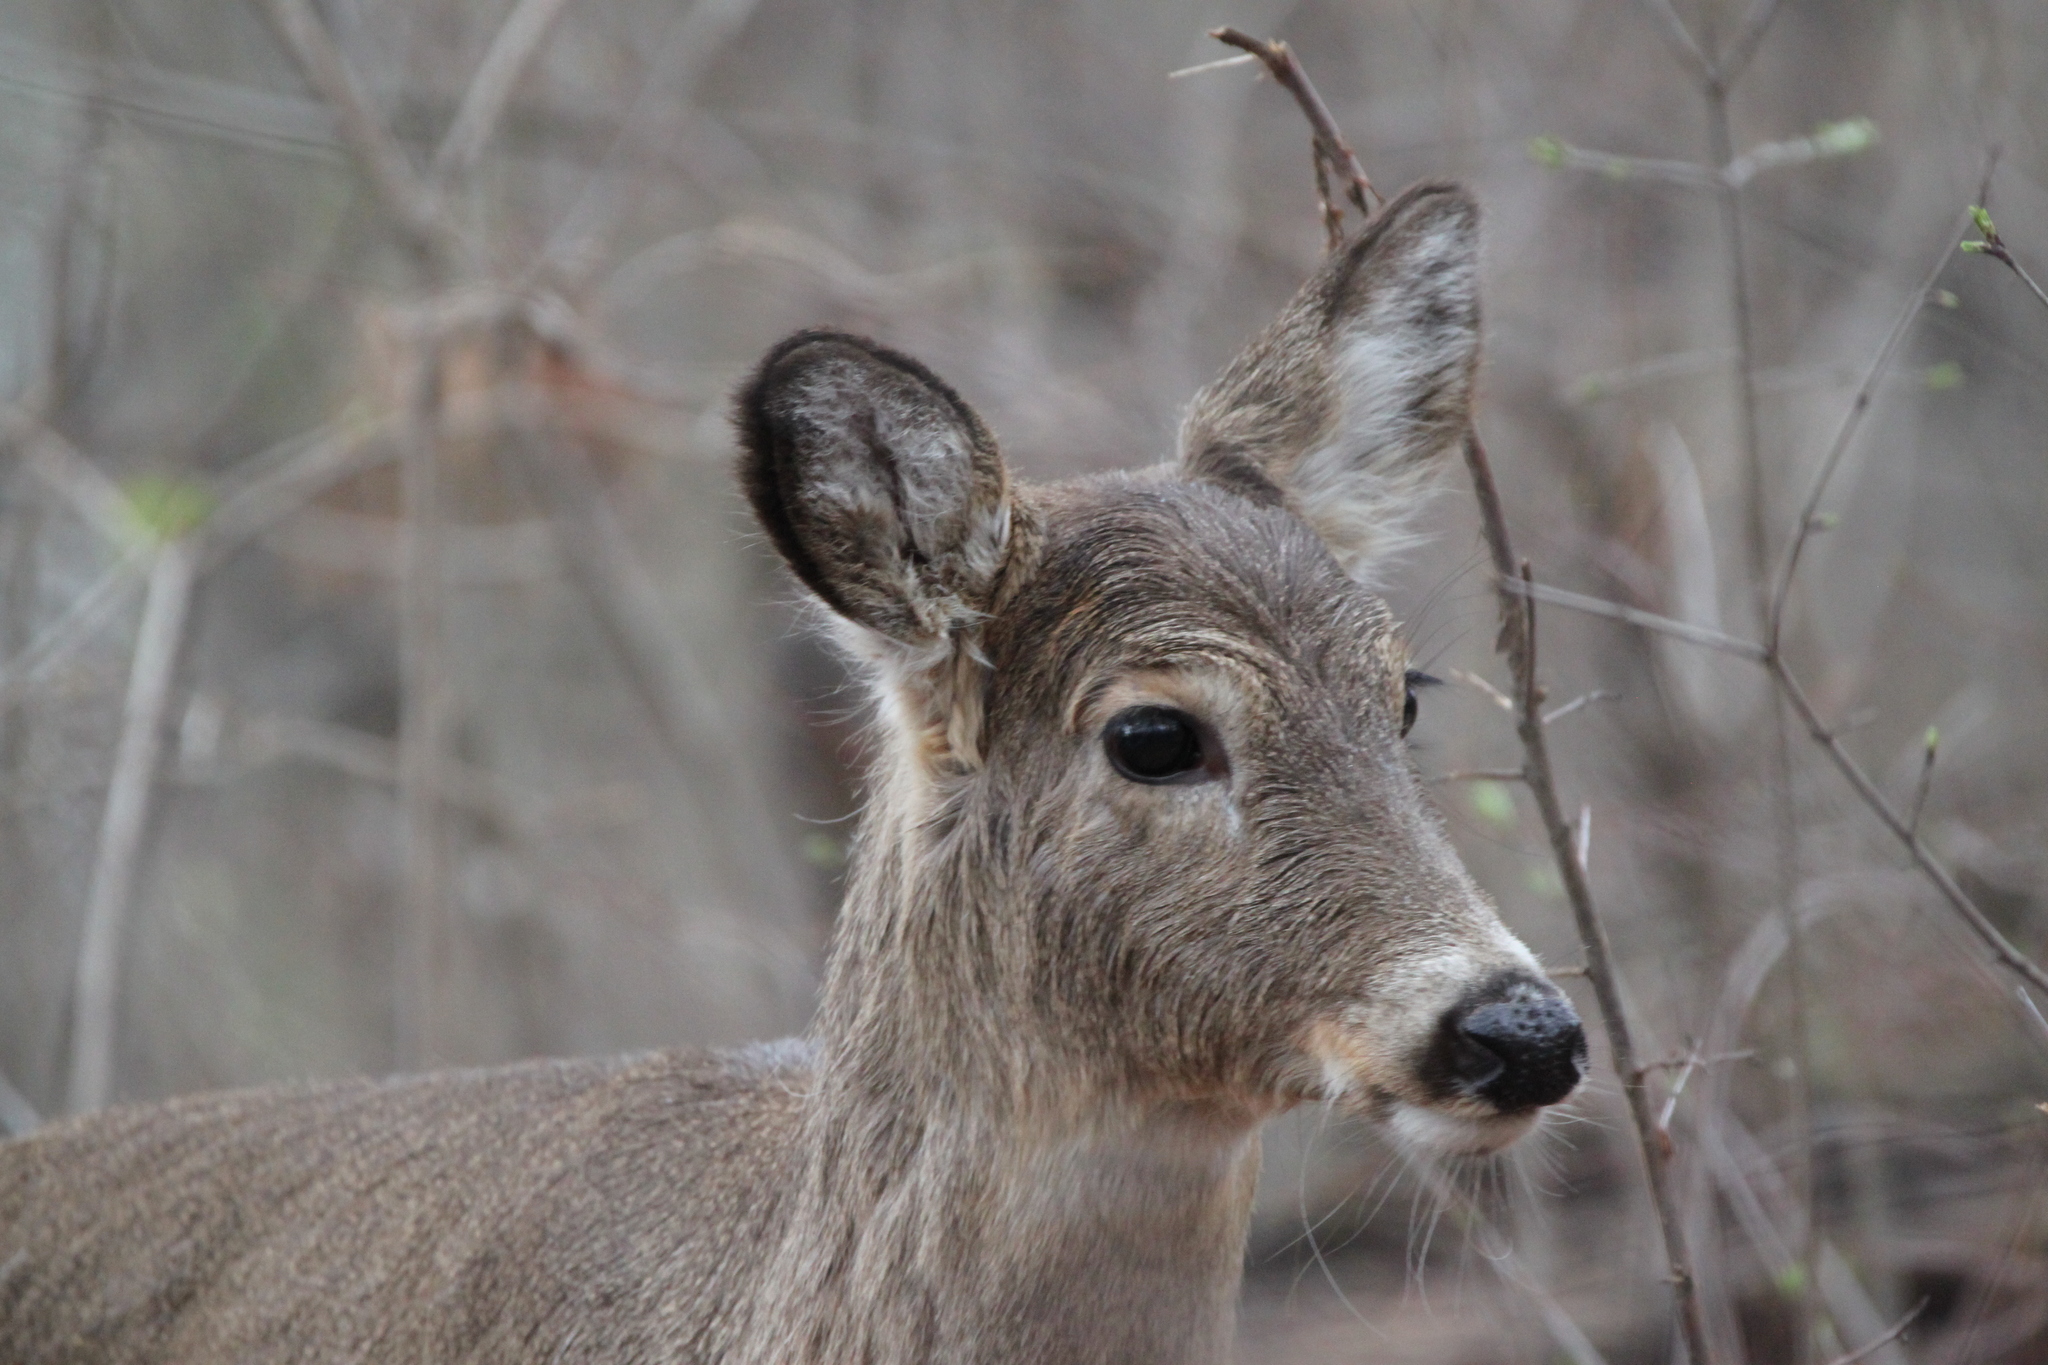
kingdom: Animalia
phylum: Chordata
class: Mammalia
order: Artiodactyla
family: Cervidae
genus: Odocoileus
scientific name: Odocoileus virginianus
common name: White-tailed deer
